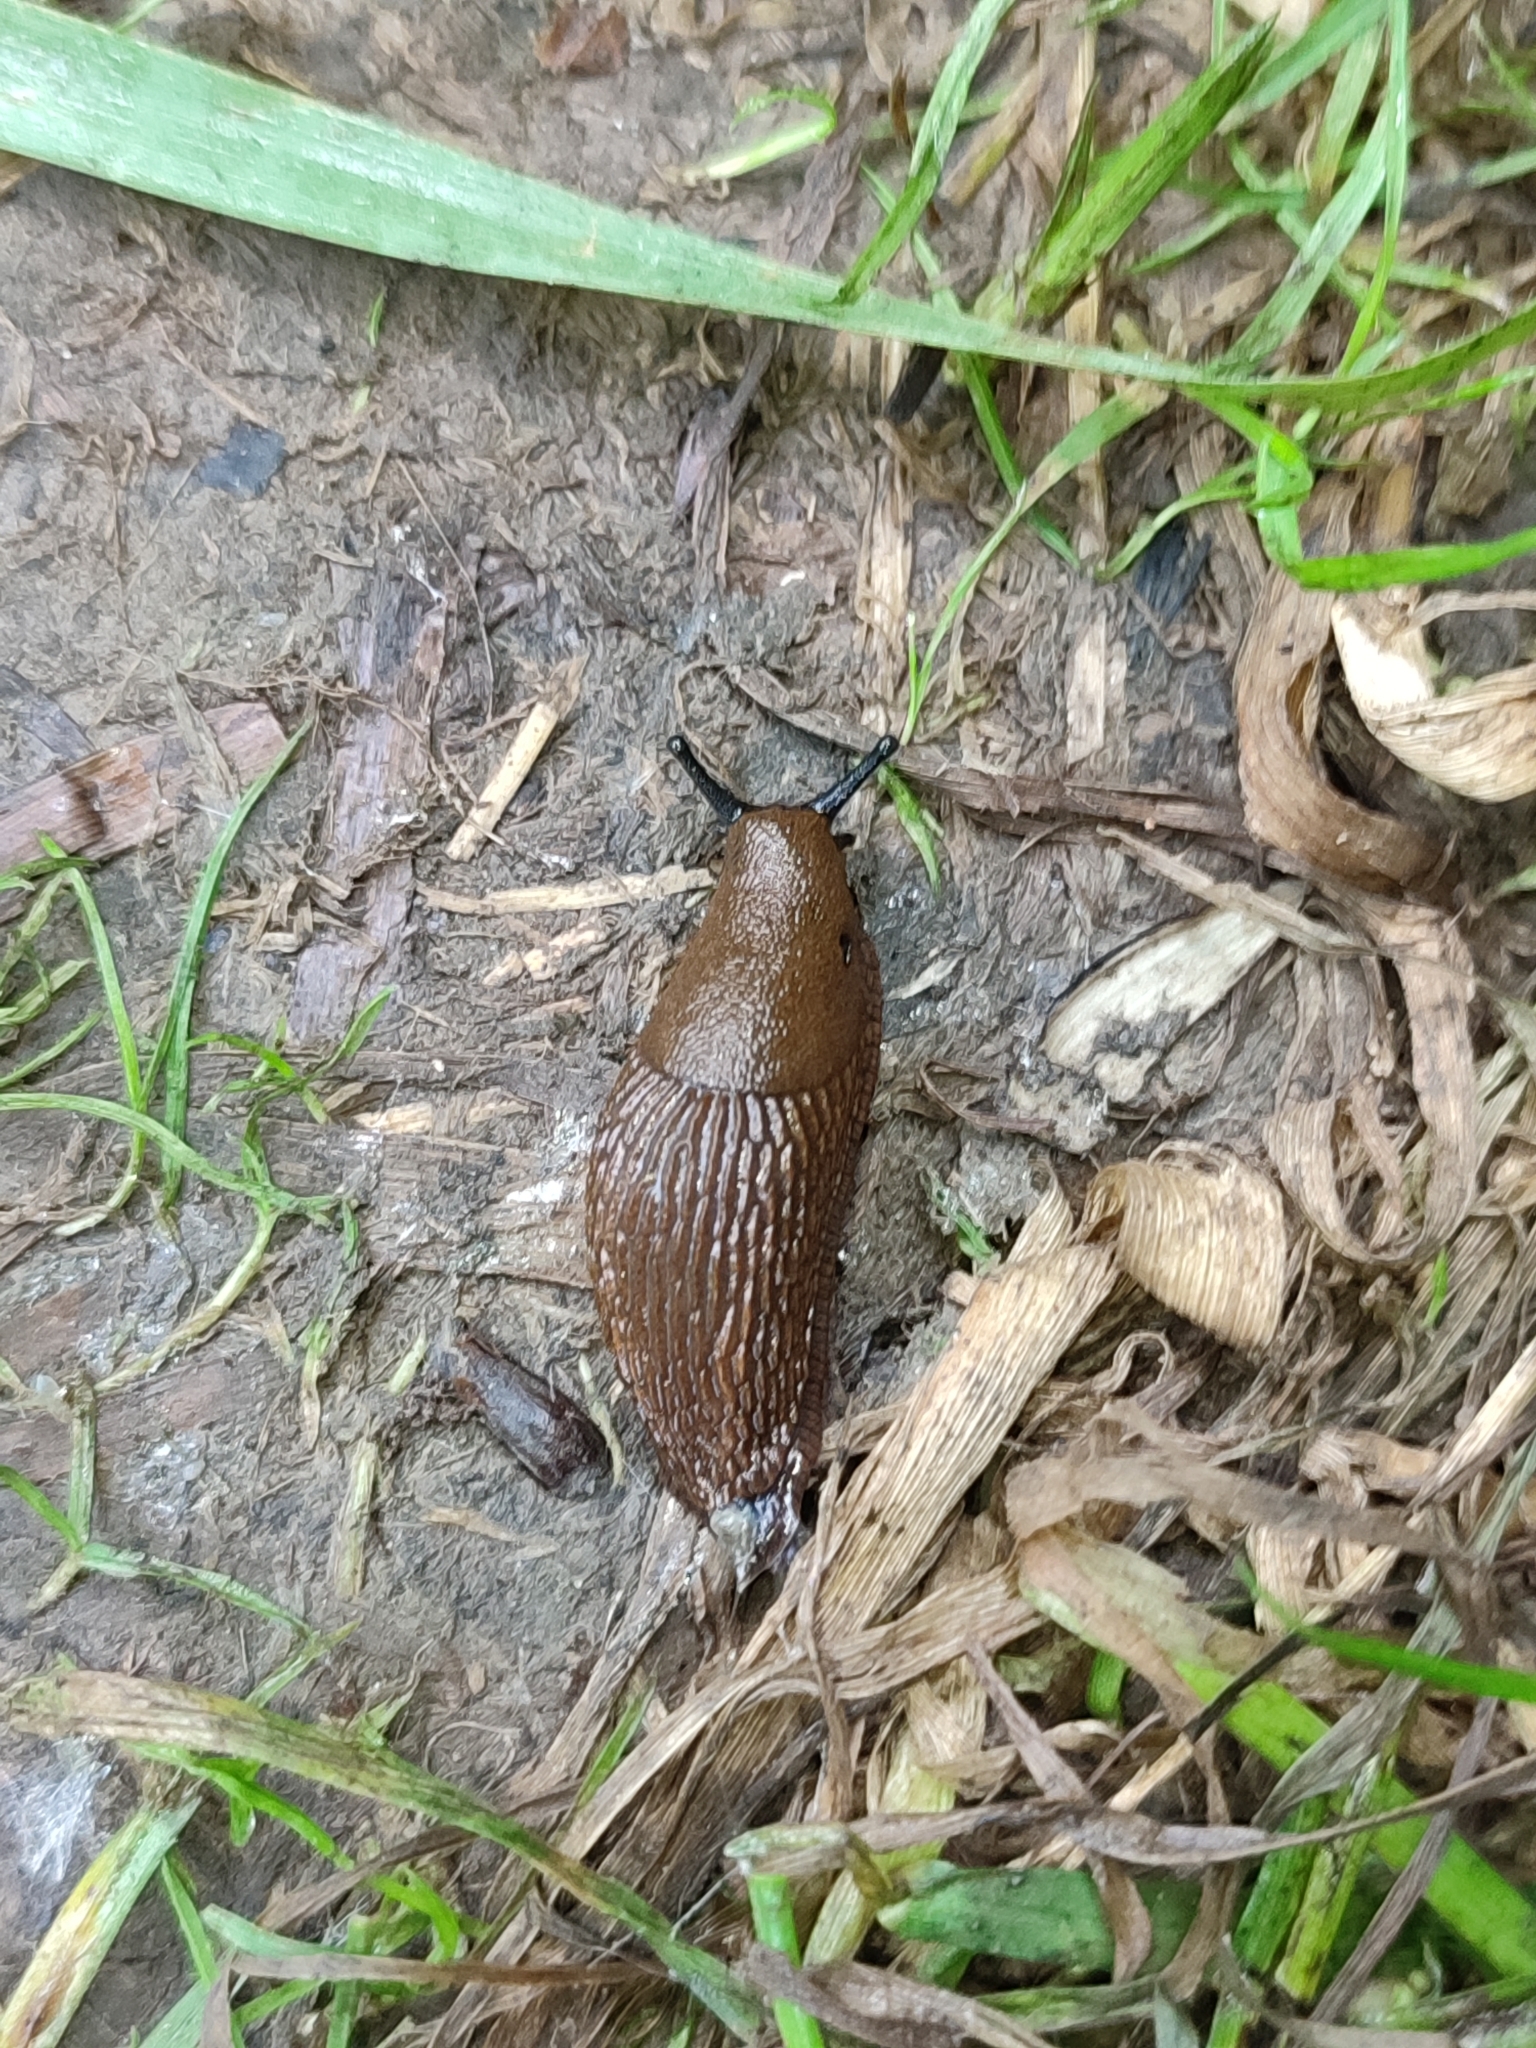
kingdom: Animalia
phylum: Mollusca
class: Gastropoda
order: Stylommatophora
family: Arionidae
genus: Arion
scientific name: Arion vulgaris
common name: Lusitanian slug
